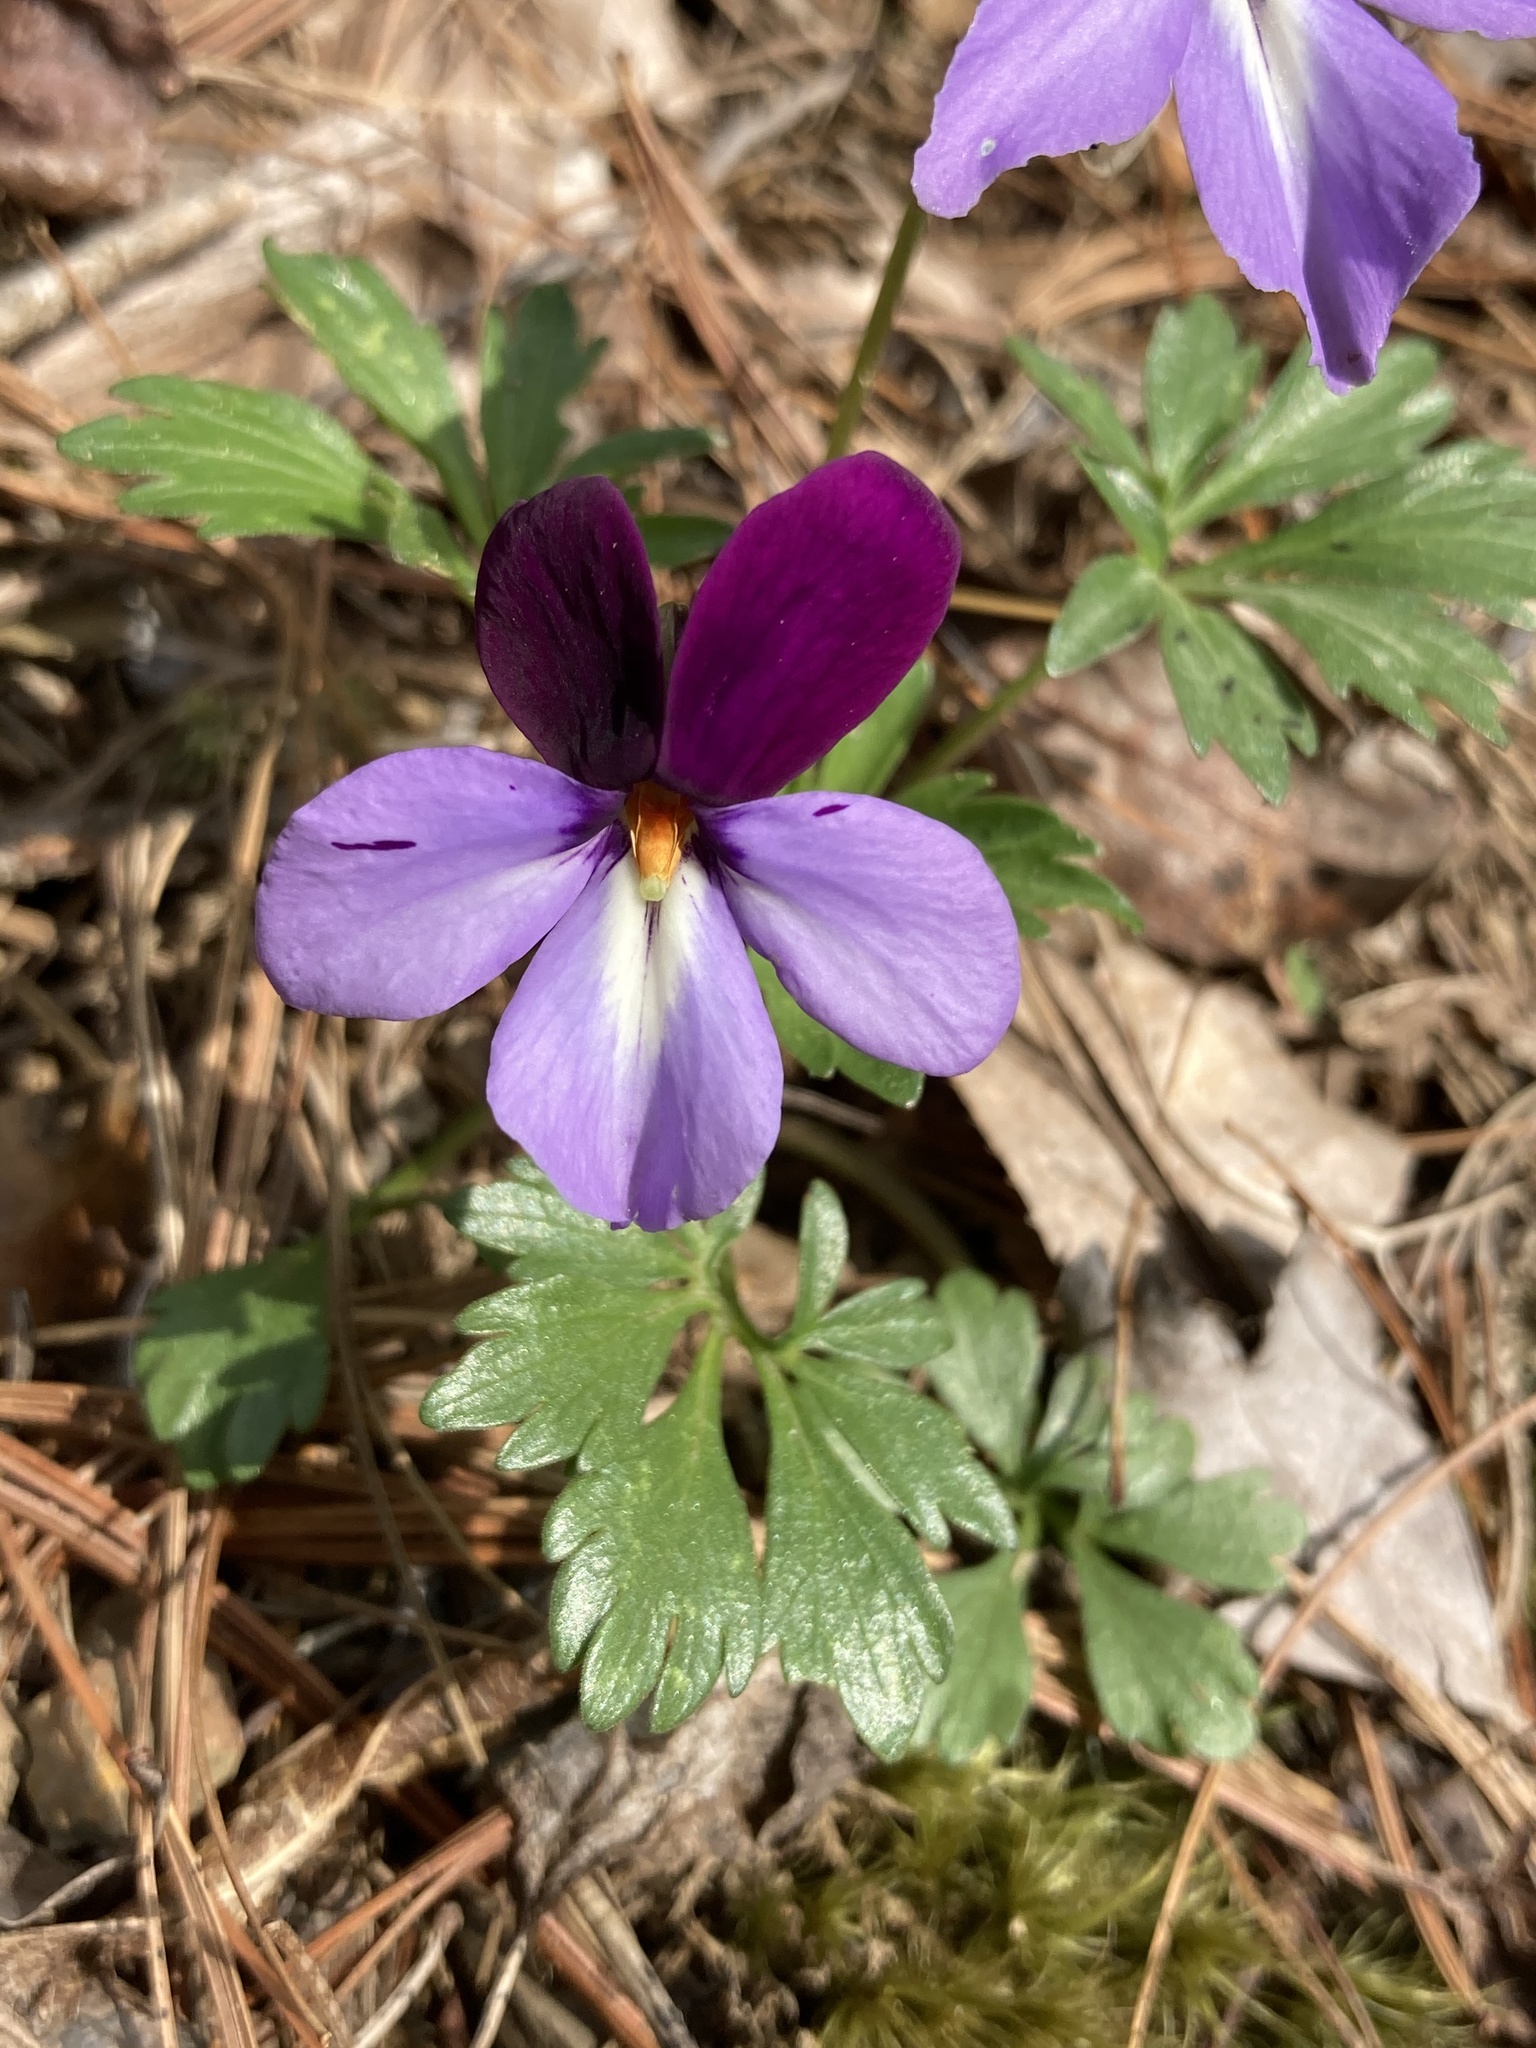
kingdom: Plantae
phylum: Tracheophyta
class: Magnoliopsida
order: Malpighiales
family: Violaceae
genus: Viola
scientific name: Viola pedata
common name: Pansy violet
